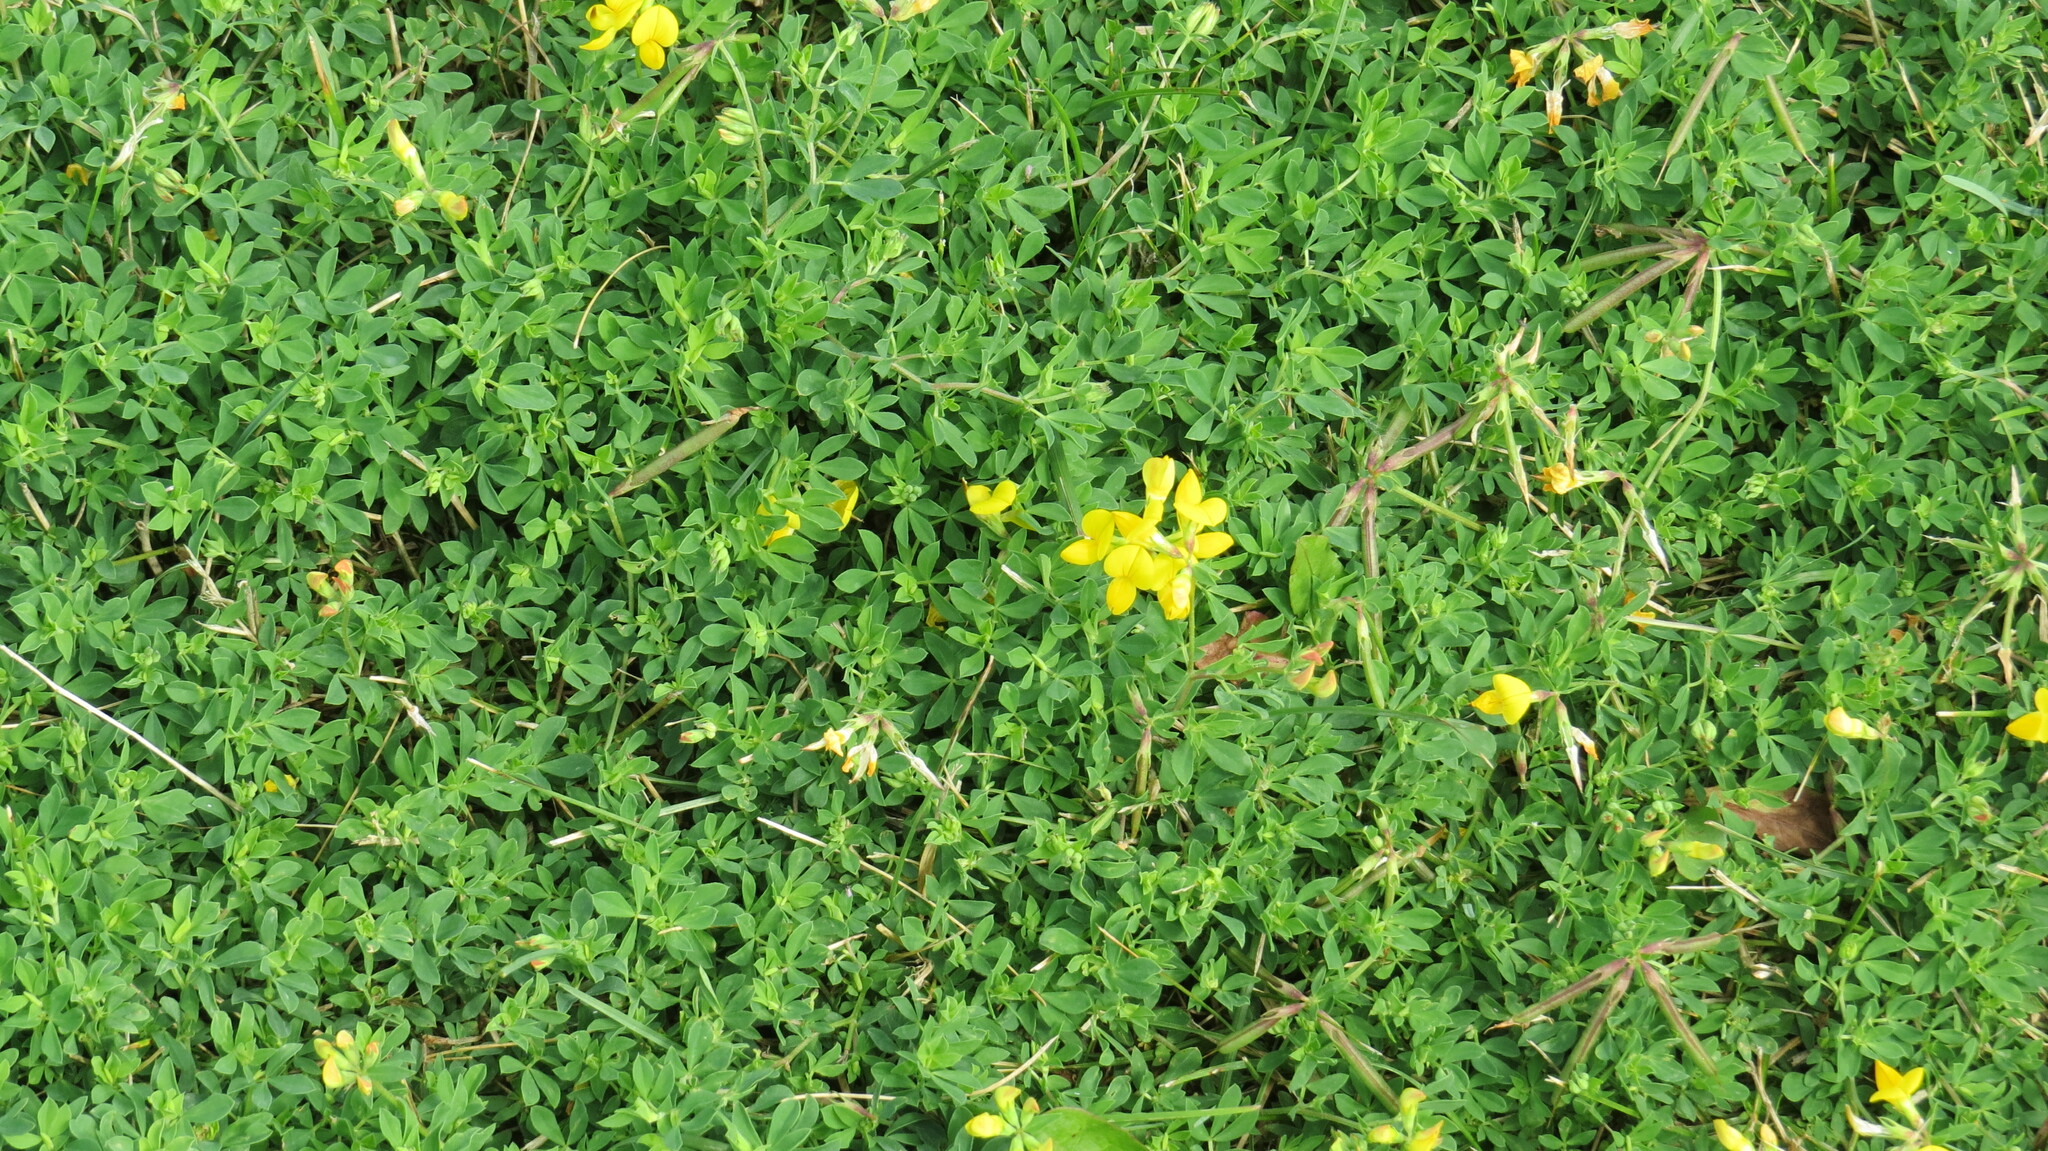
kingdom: Plantae
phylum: Tracheophyta
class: Magnoliopsida
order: Fabales
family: Fabaceae
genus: Lotus
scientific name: Lotus corniculatus
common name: Common bird's-foot-trefoil
